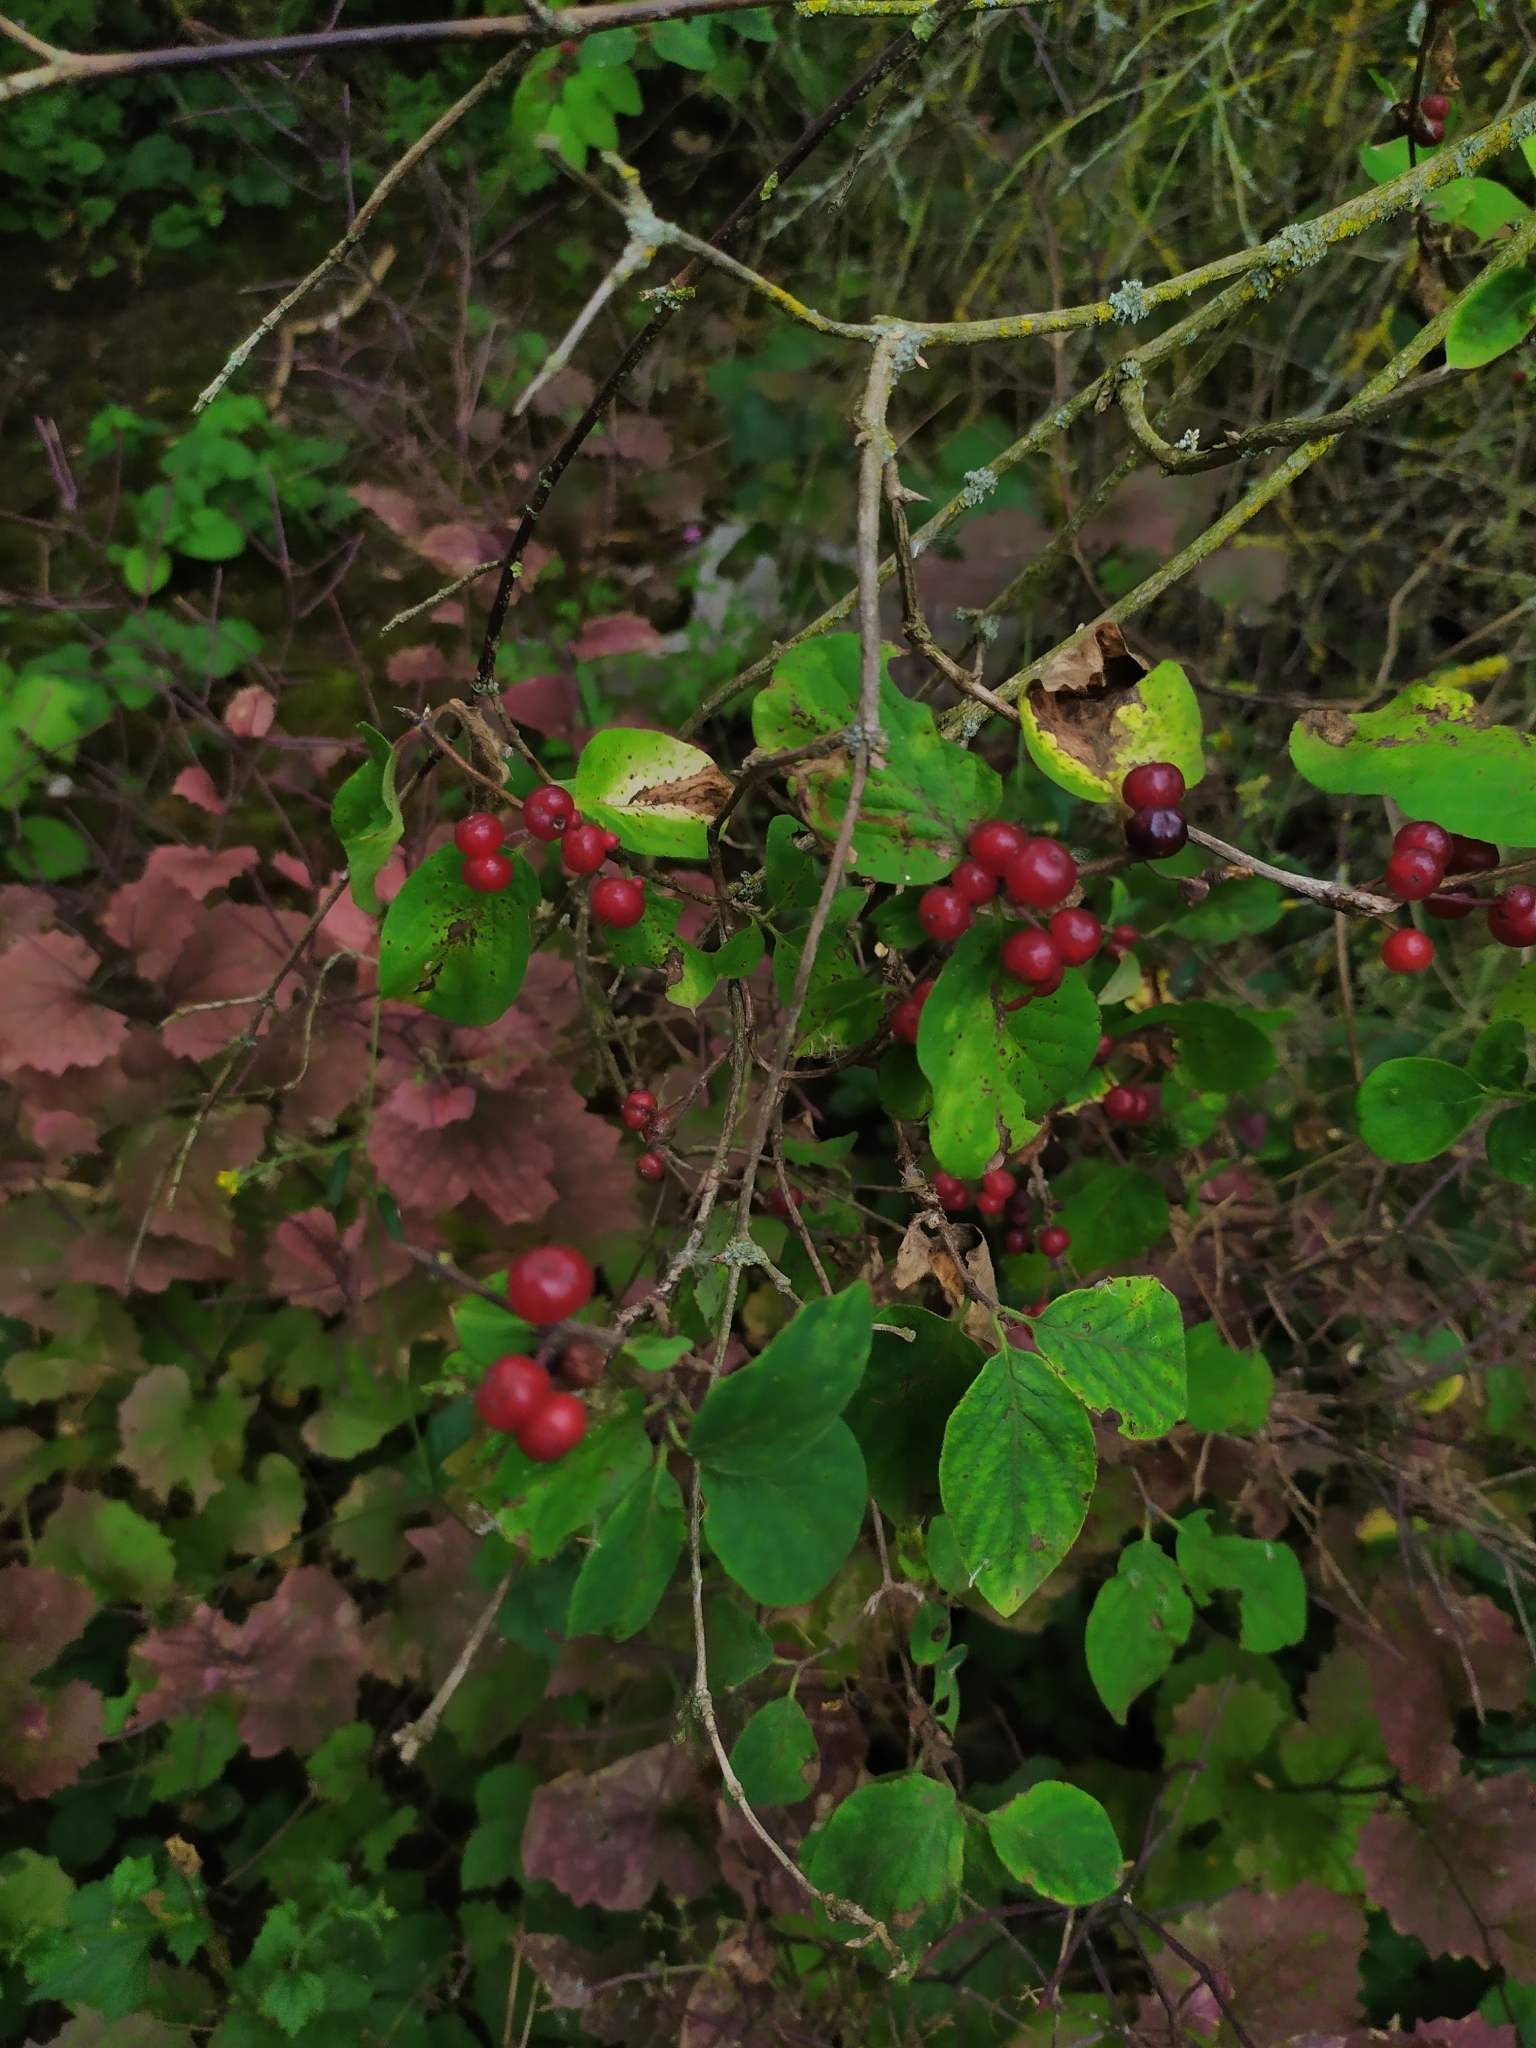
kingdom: Plantae
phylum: Tracheophyta
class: Magnoliopsida
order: Dipsacales
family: Caprifoliaceae
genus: Lonicera
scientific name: Lonicera xylosteum
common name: Fly honeysuckle
